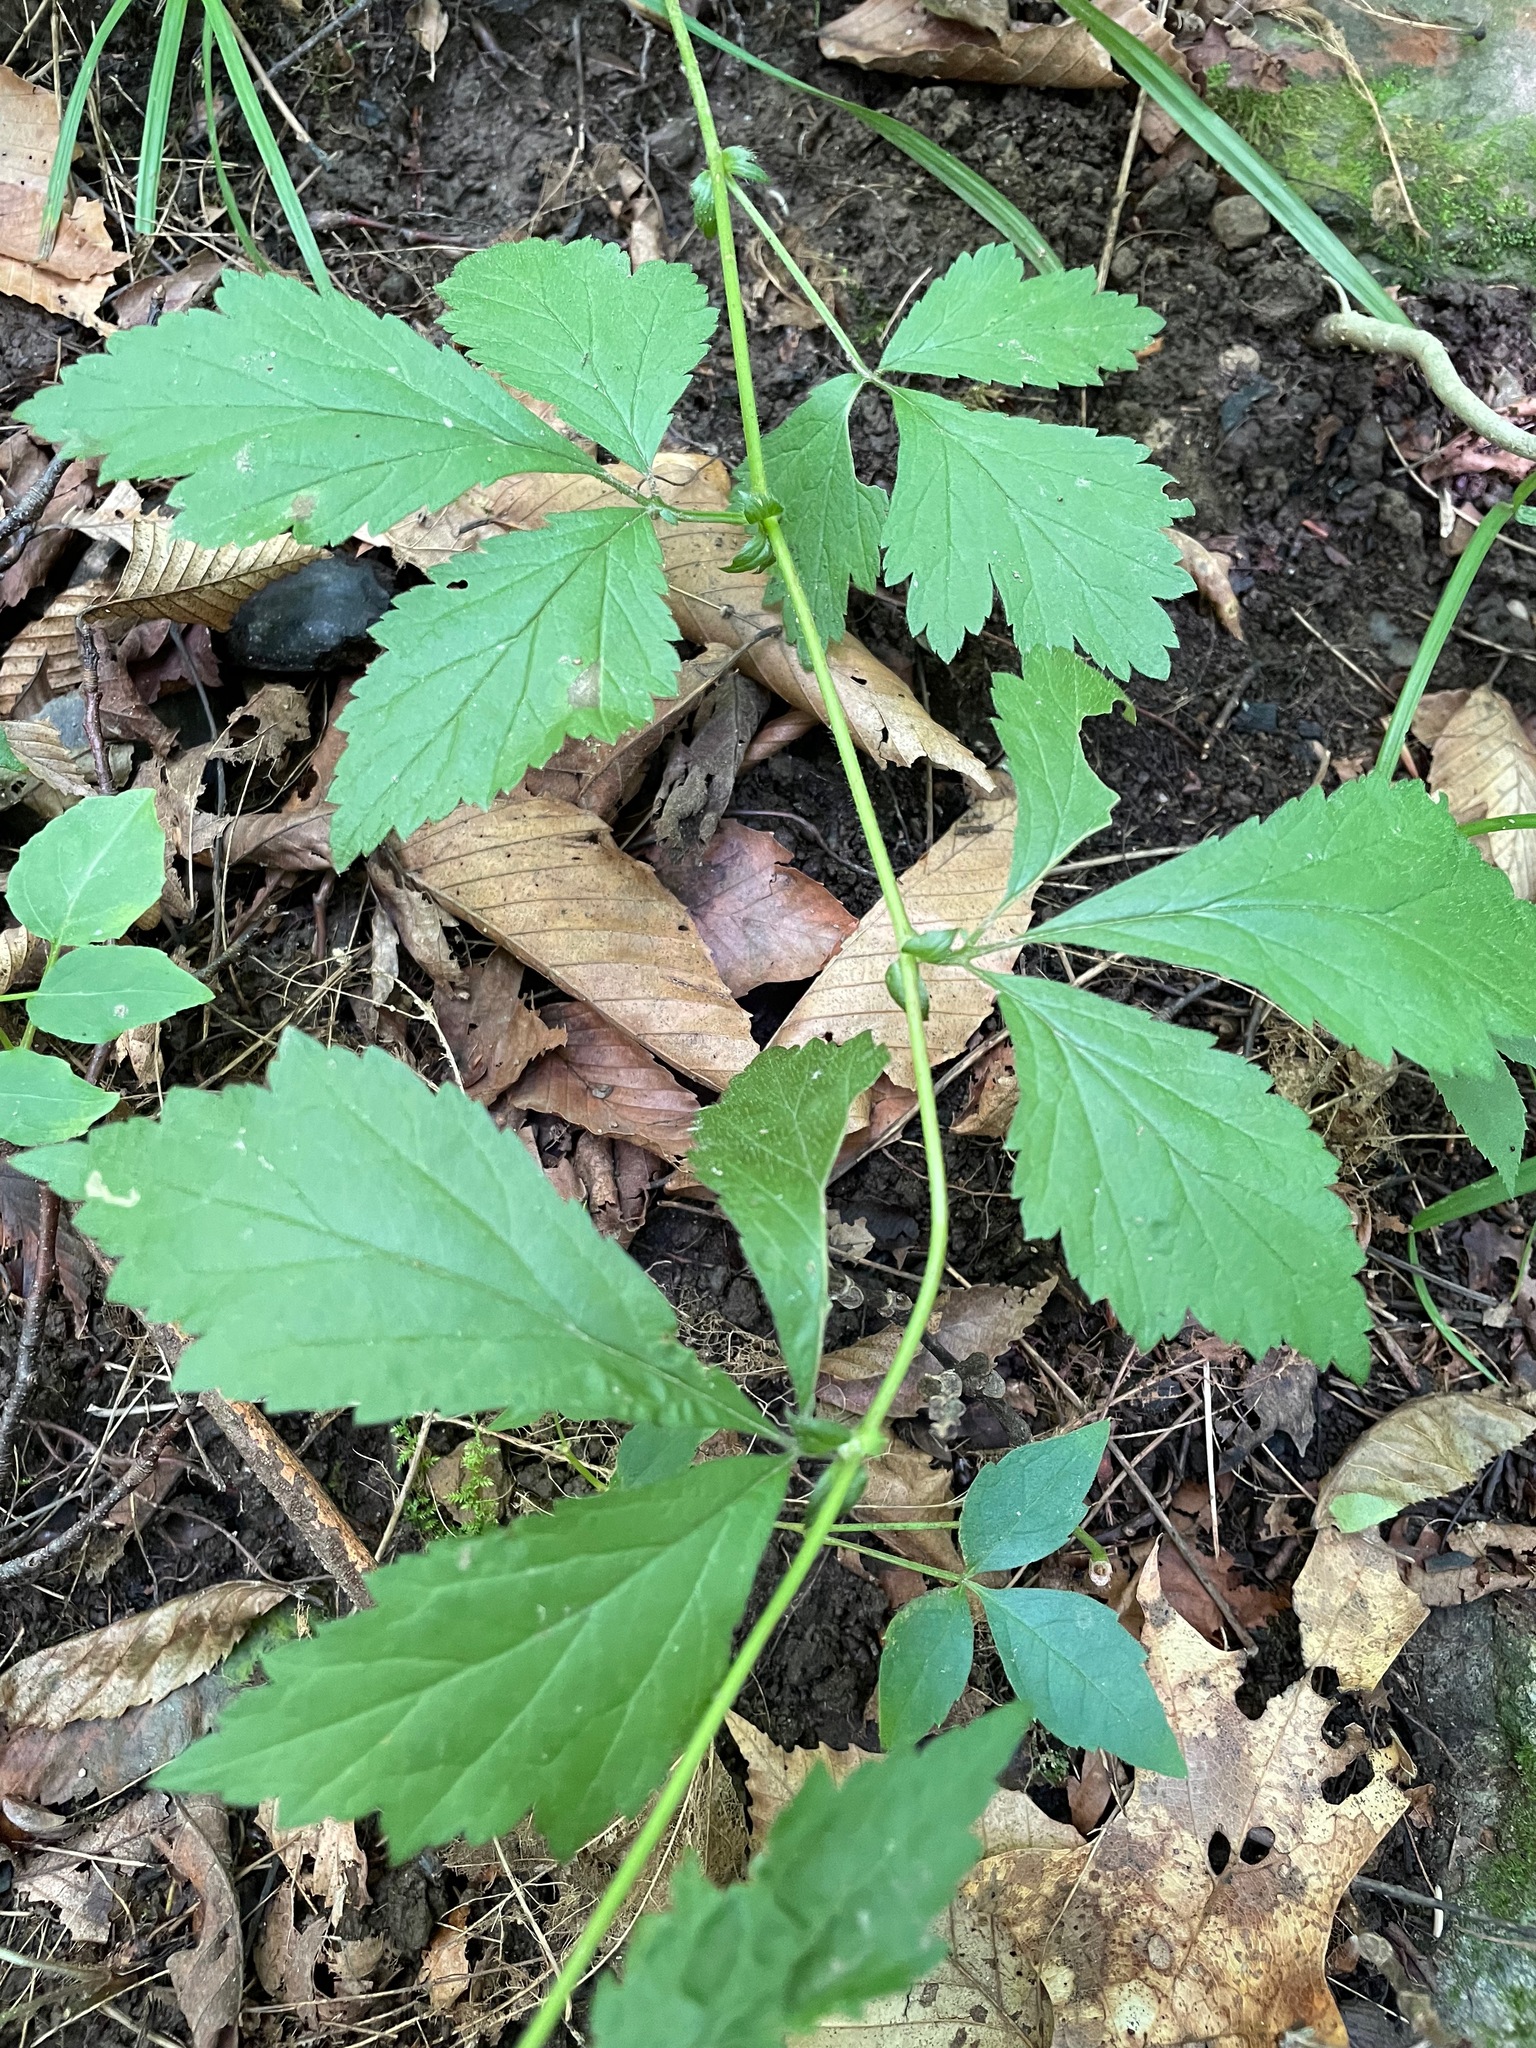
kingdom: Plantae
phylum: Tracheophyta
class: Magnoliopsida
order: Rosales
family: Rosaceae
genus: Geum
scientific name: Geum canadense
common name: White avens
